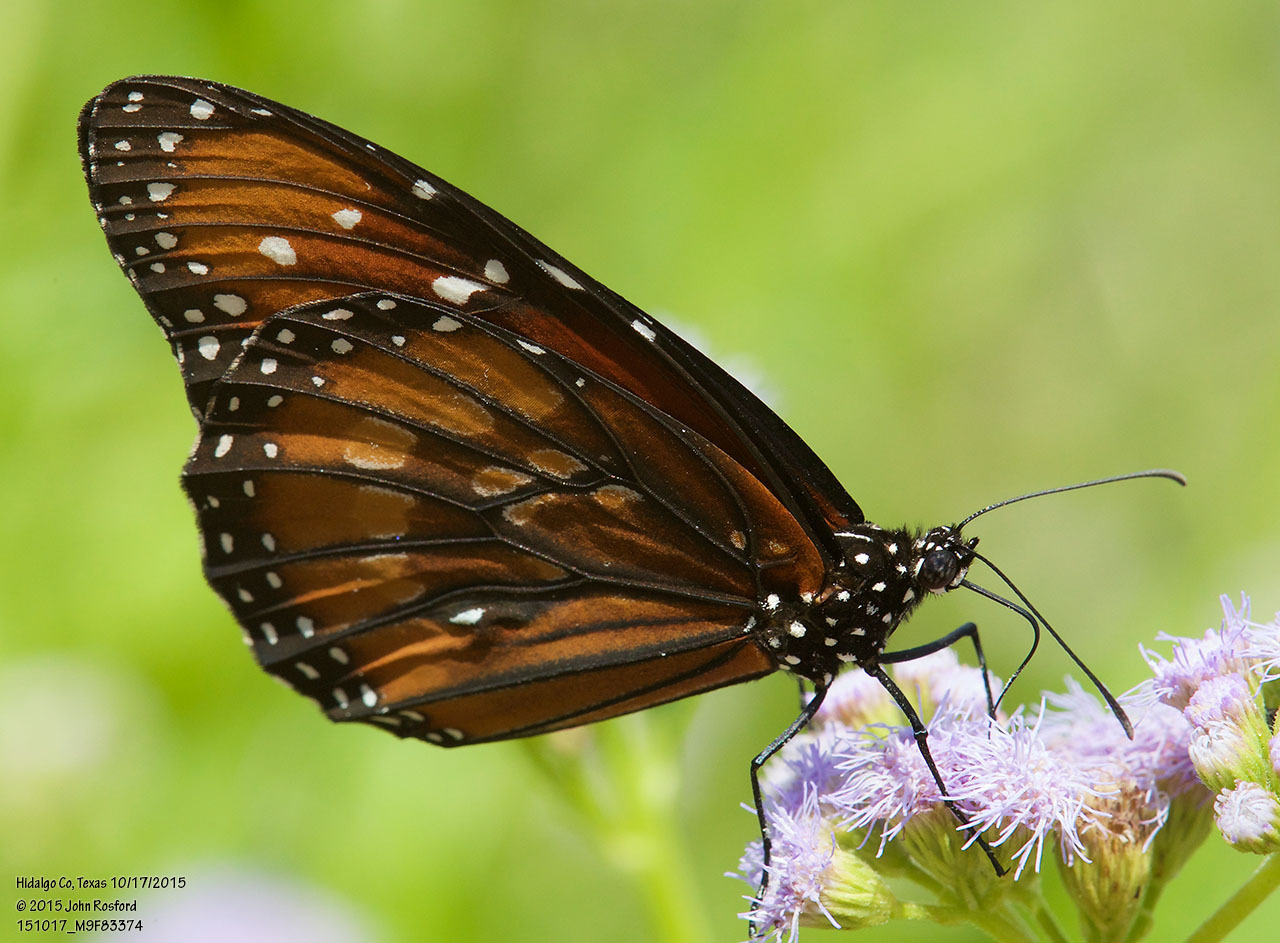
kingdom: Animalia
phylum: Arthropoda
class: Insecta
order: Lepidoptera
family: Nymphalidae
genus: Danaus
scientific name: Danaus eresimus
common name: Soldier
